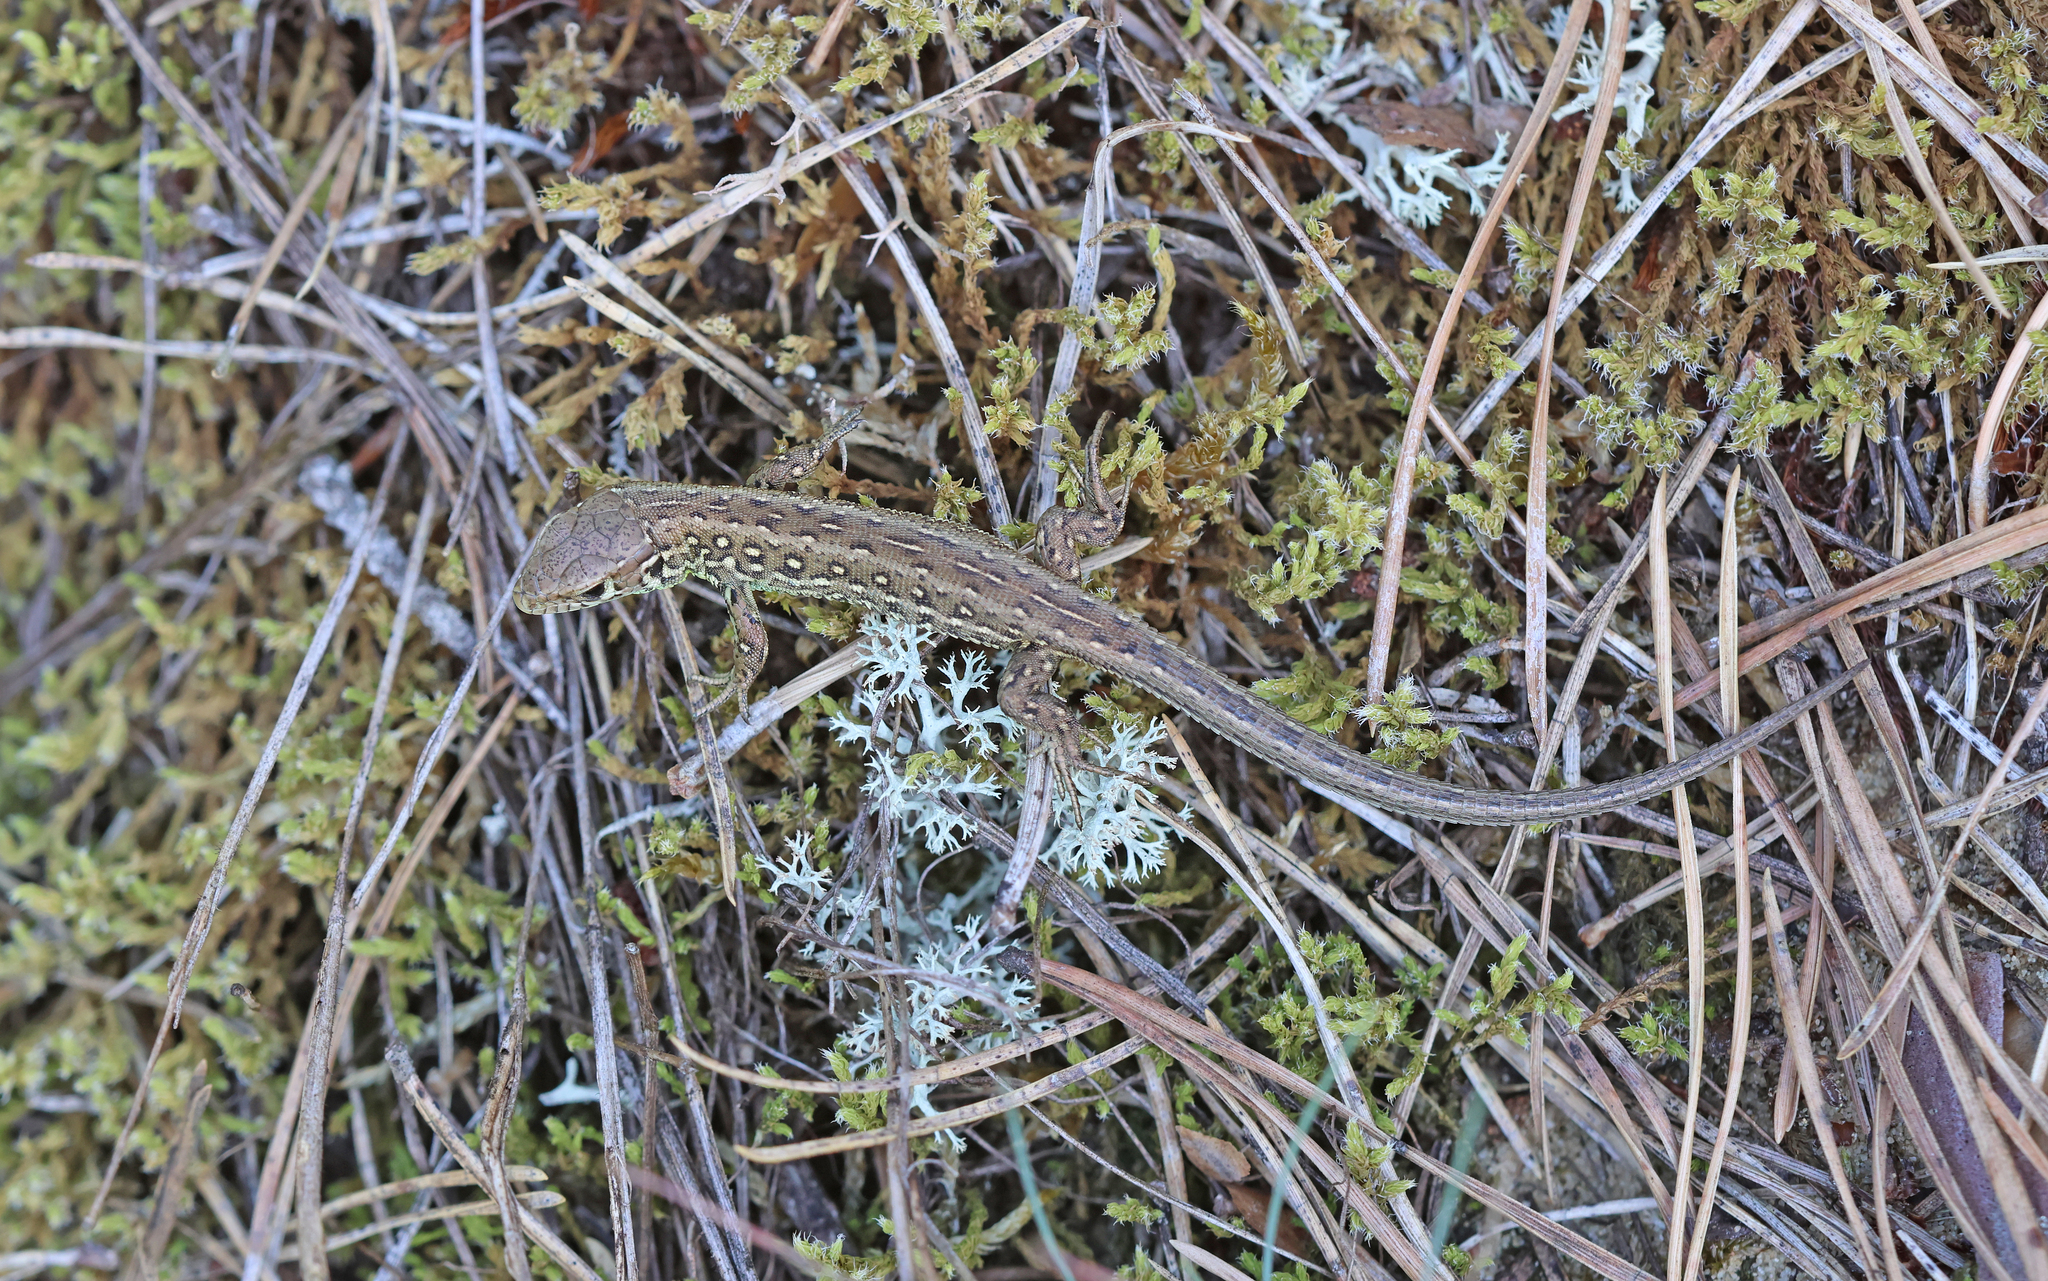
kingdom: Animalia
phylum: Chordata
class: Squamata
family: Lacertidae
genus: Lacerta
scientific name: Lacerta agilis
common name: Sand lizard
